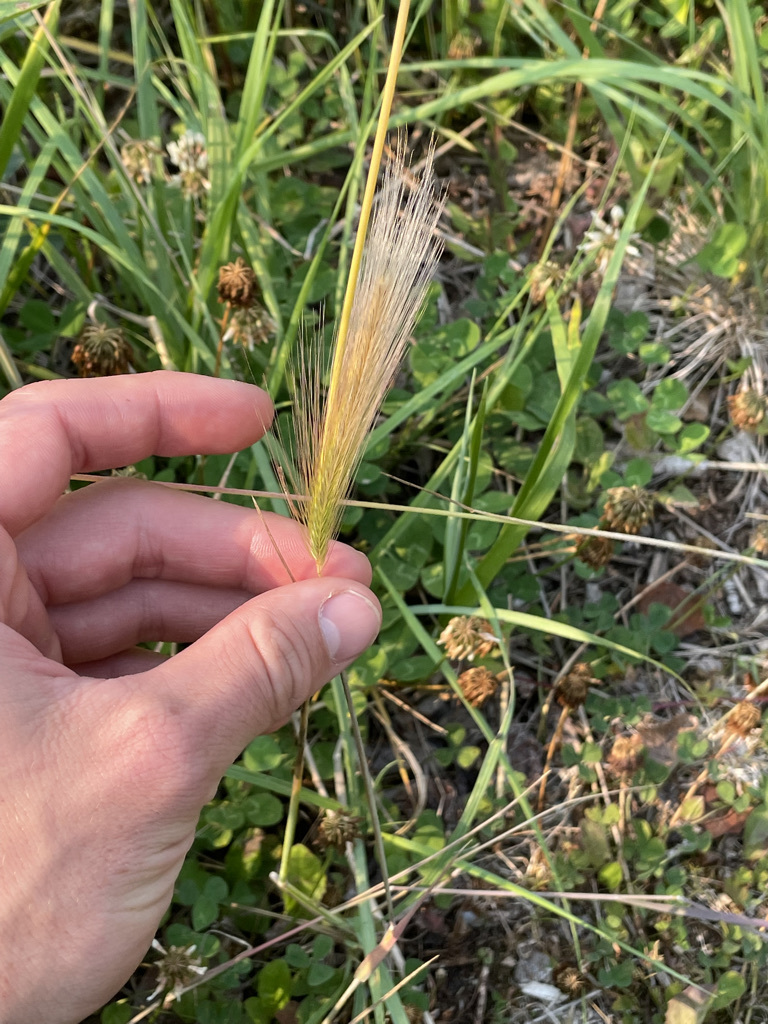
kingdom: Plantae
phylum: Tracheophyta
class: Liliopsida
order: Poales
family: Poaceae
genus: Hordeum
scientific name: Hordeum jubatum
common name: Foxtail barley
